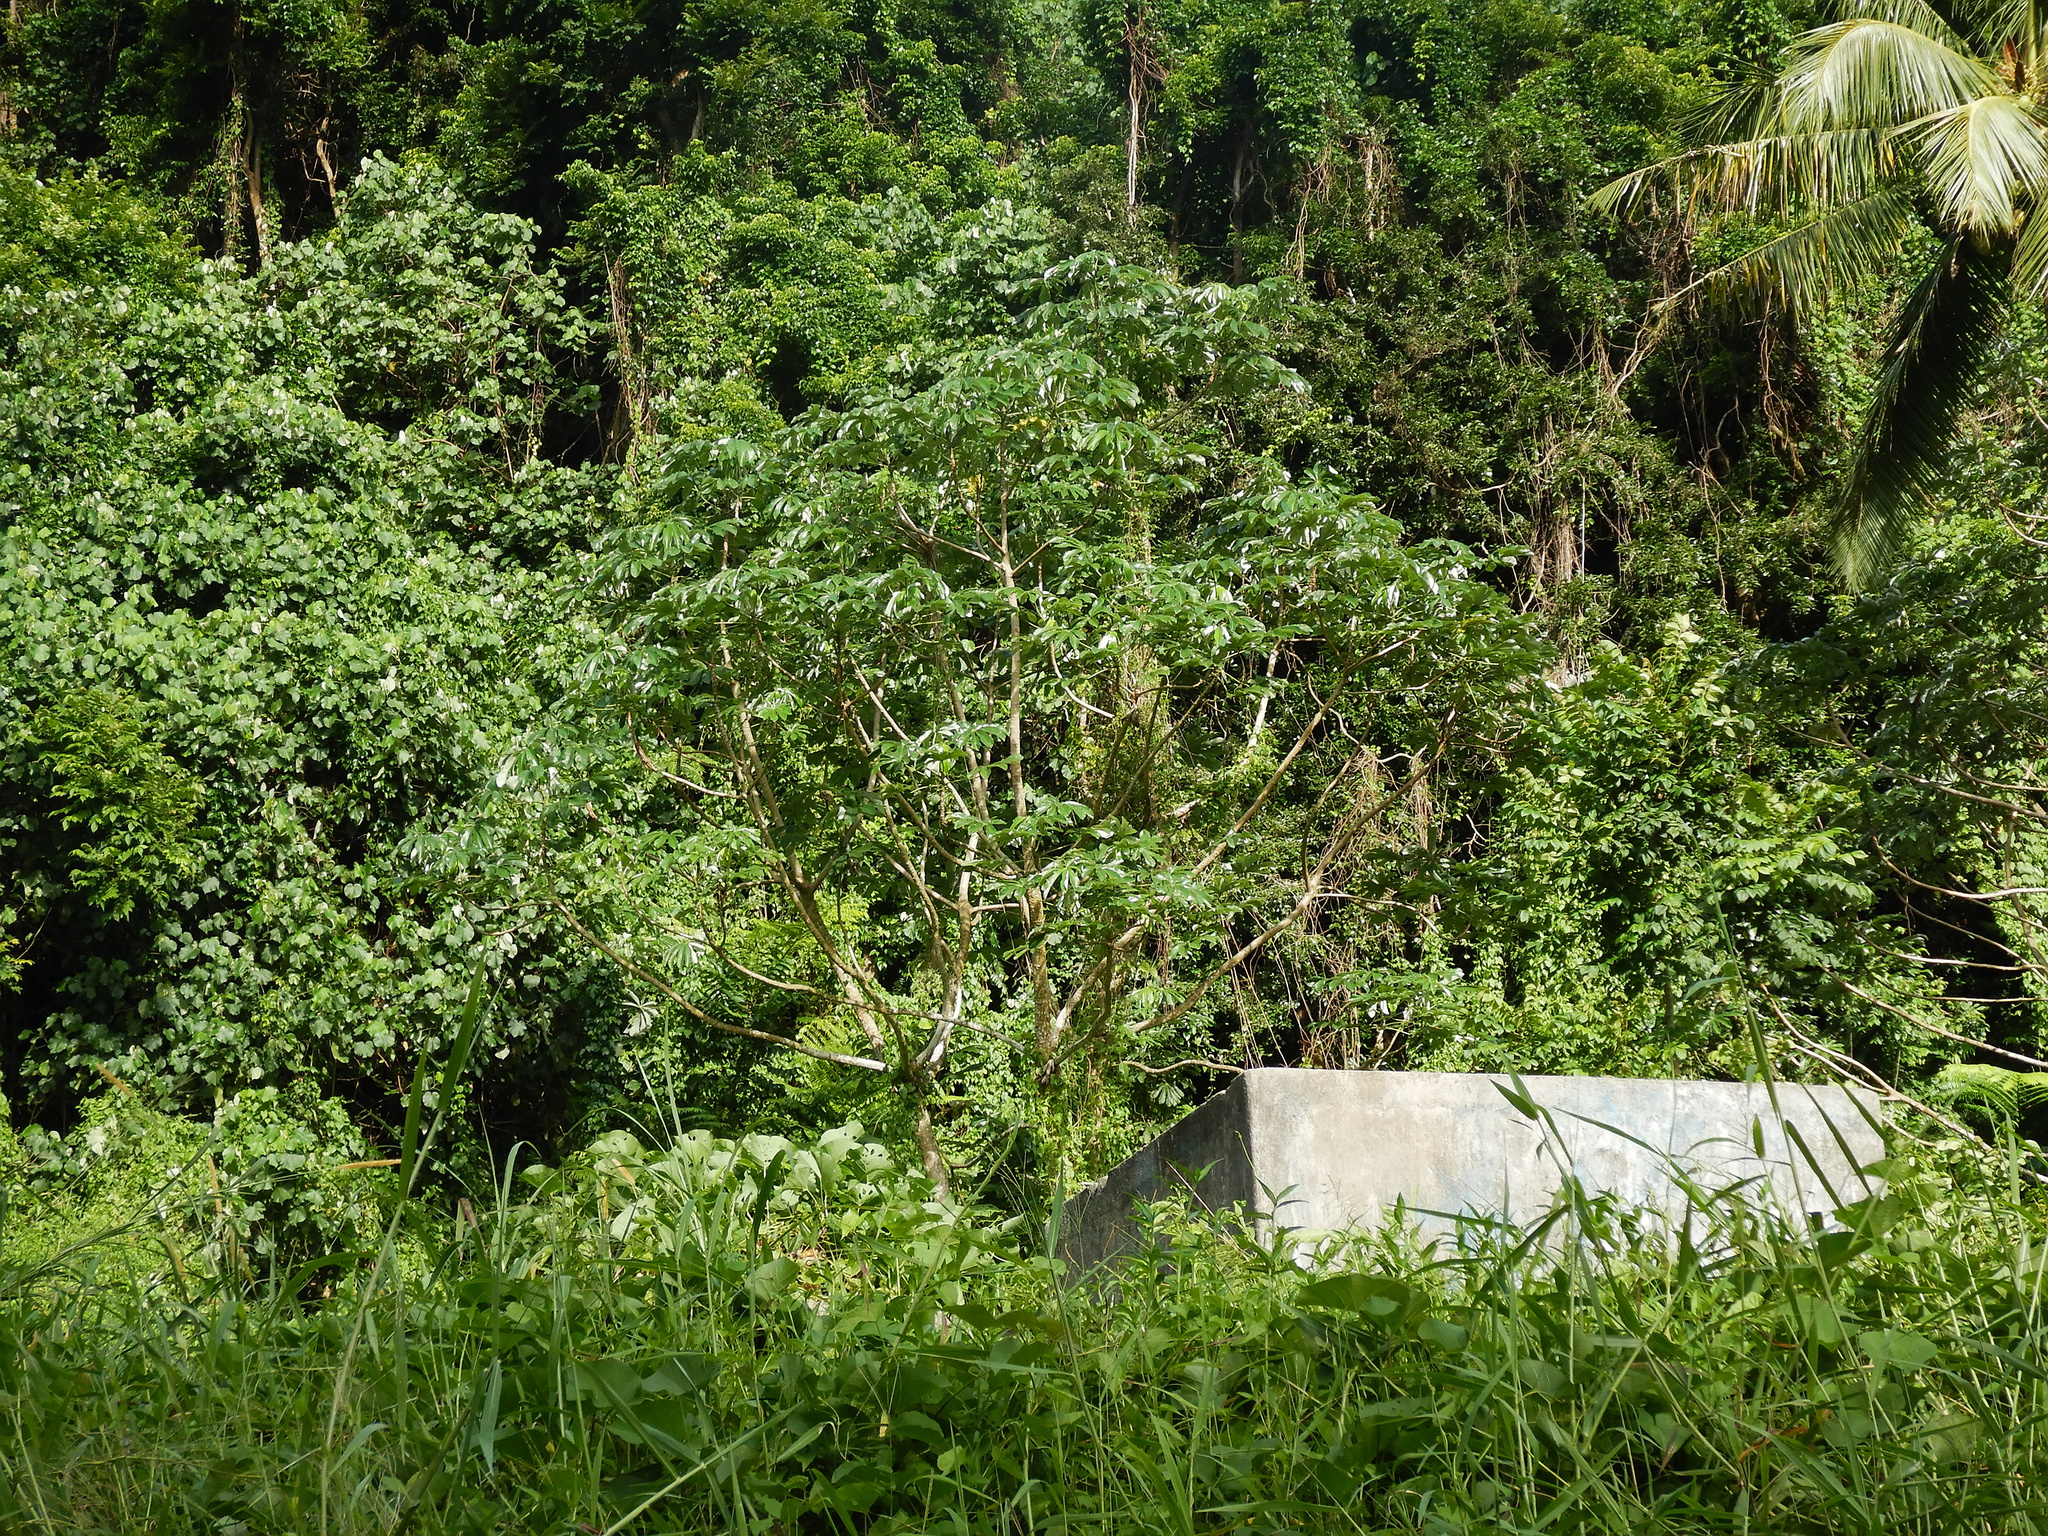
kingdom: Plantae
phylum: Tracheophyta
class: Magnoliopsida
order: Rosales
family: Urticaceae
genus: Cecropia
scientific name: Cecropia pachystachya
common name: Ambay pumpwood
